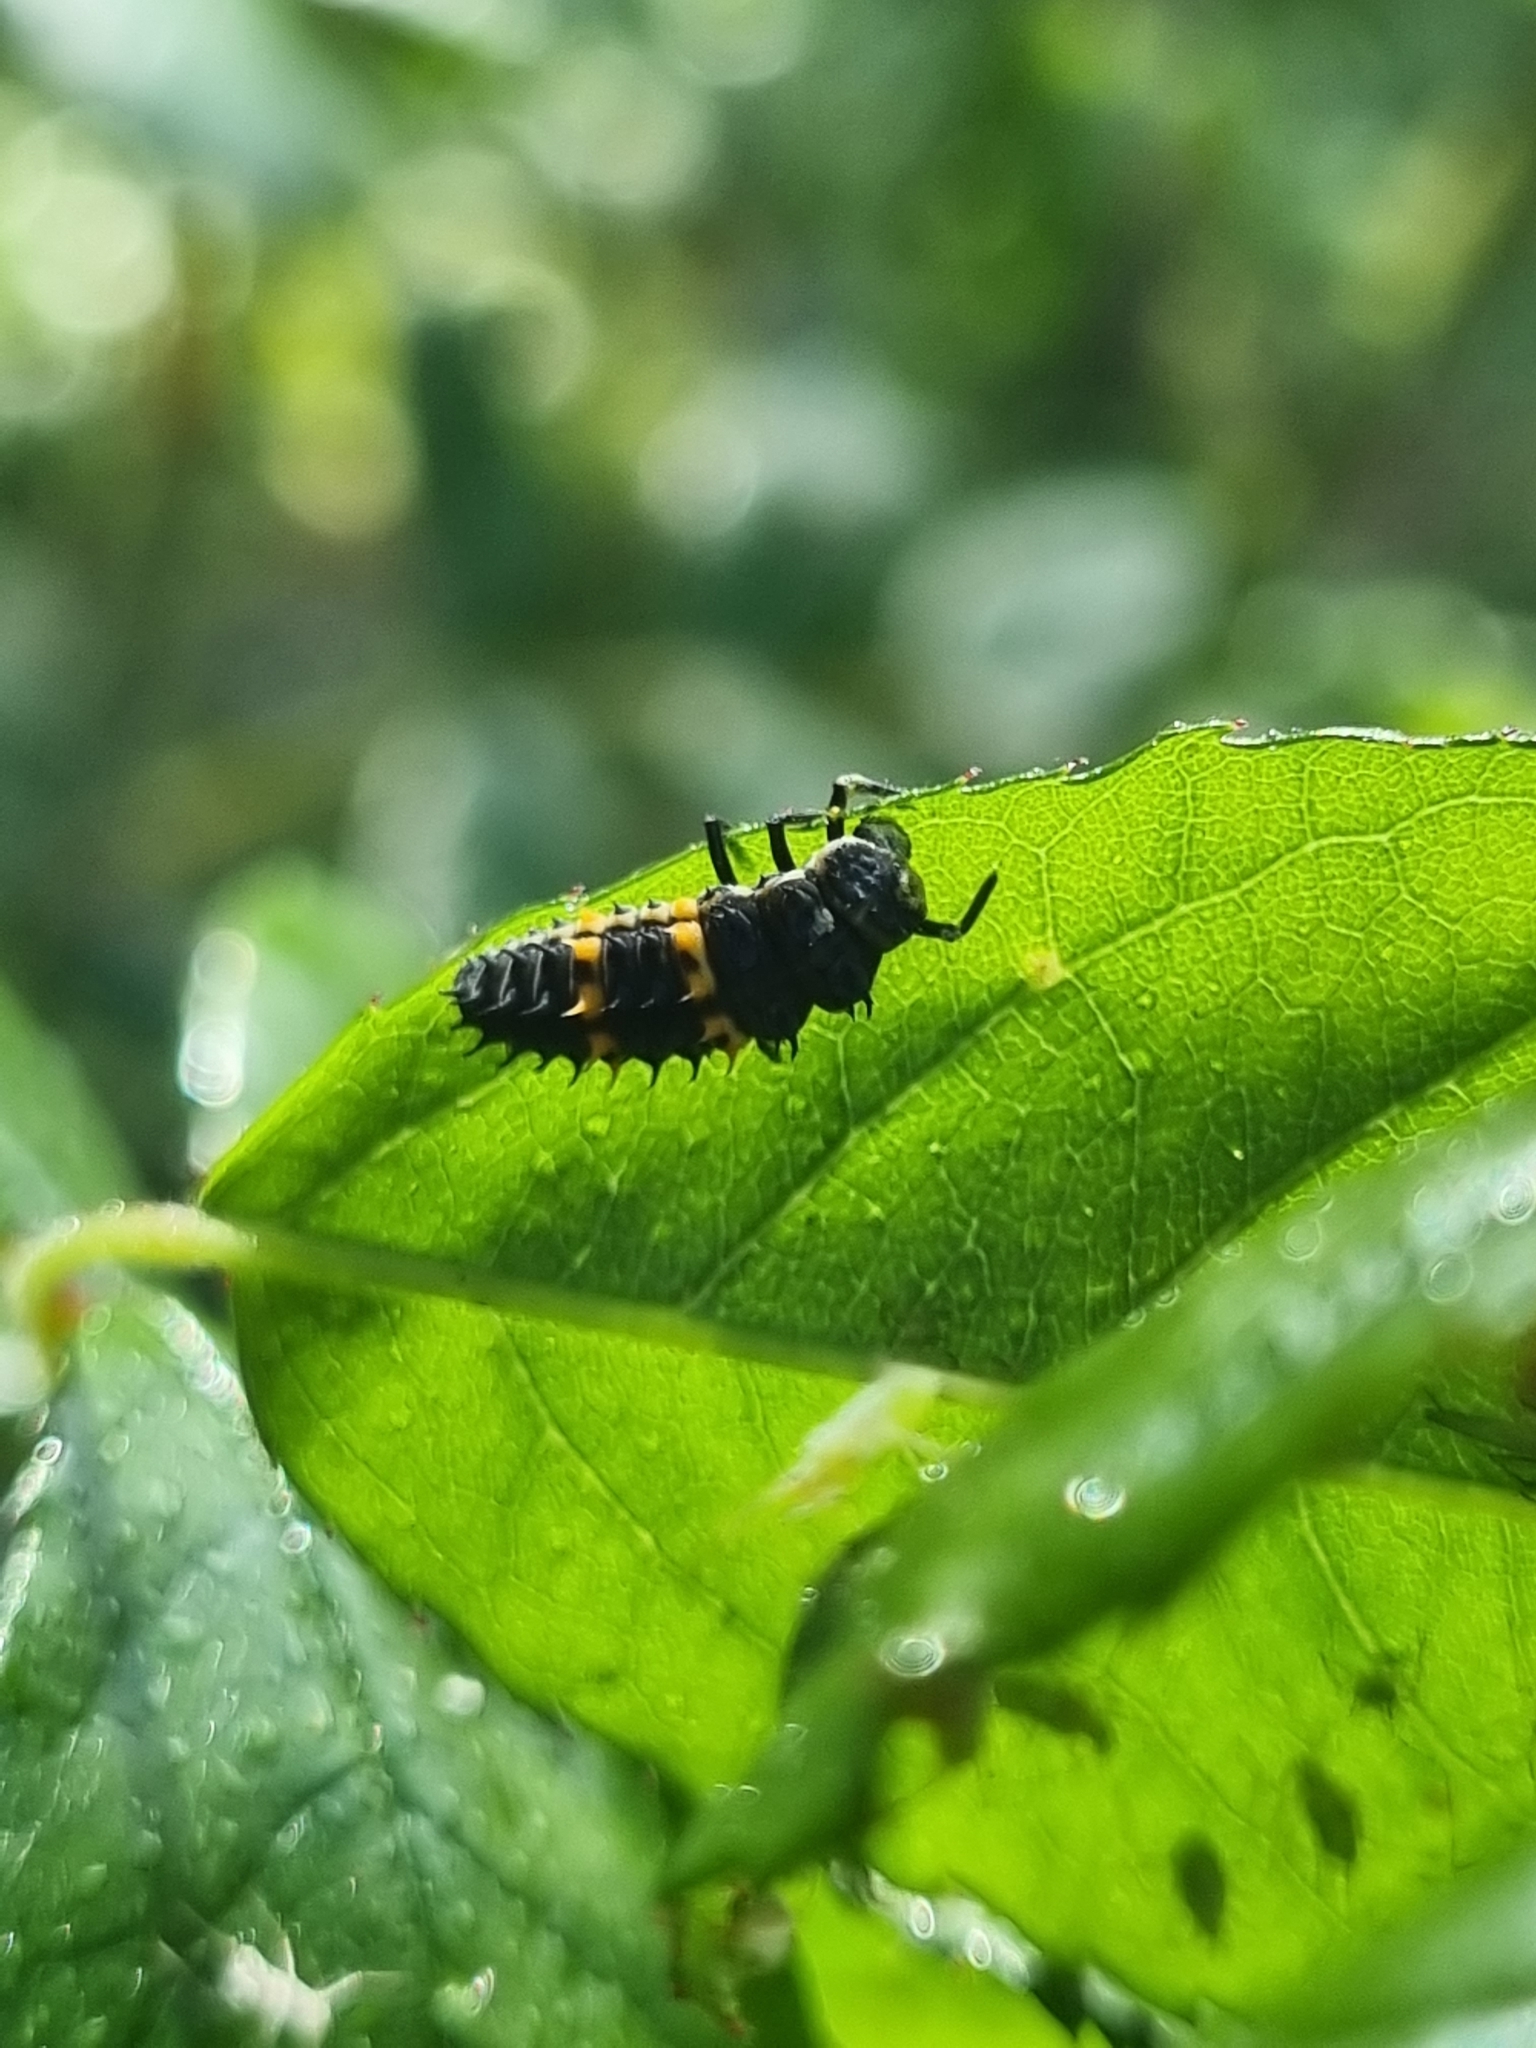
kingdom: Animalia
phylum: Arthropoda
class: Insecta
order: Coleoptera
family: Coccinellidae
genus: Harmonia
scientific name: Harmonia conformis
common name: Common spotted ladybird beetle
